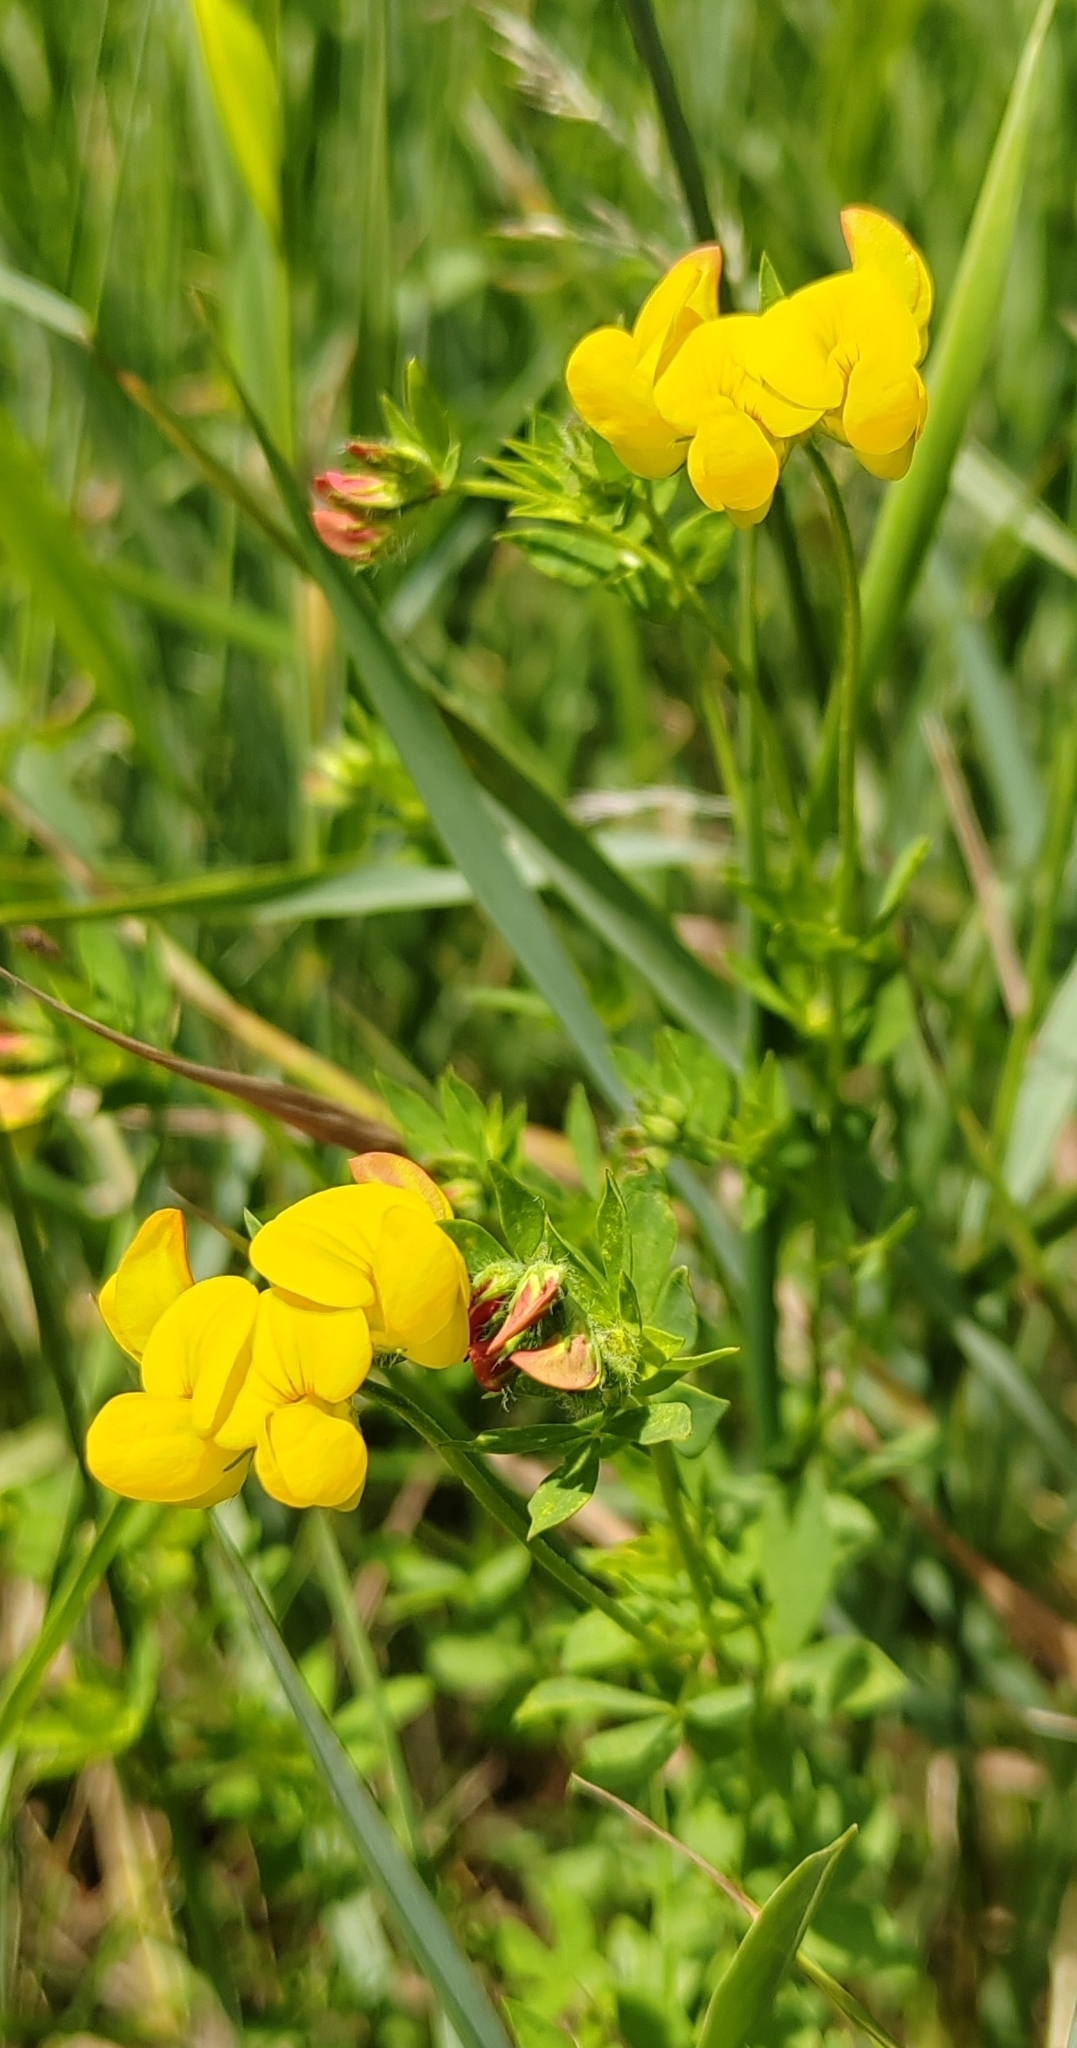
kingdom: Plantae
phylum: Tracheophyta
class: Magnoliopsida
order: Fabales
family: Fabaceae
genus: Lotus
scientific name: Lotus corniculatus
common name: Common bird's-foot-trefoil
